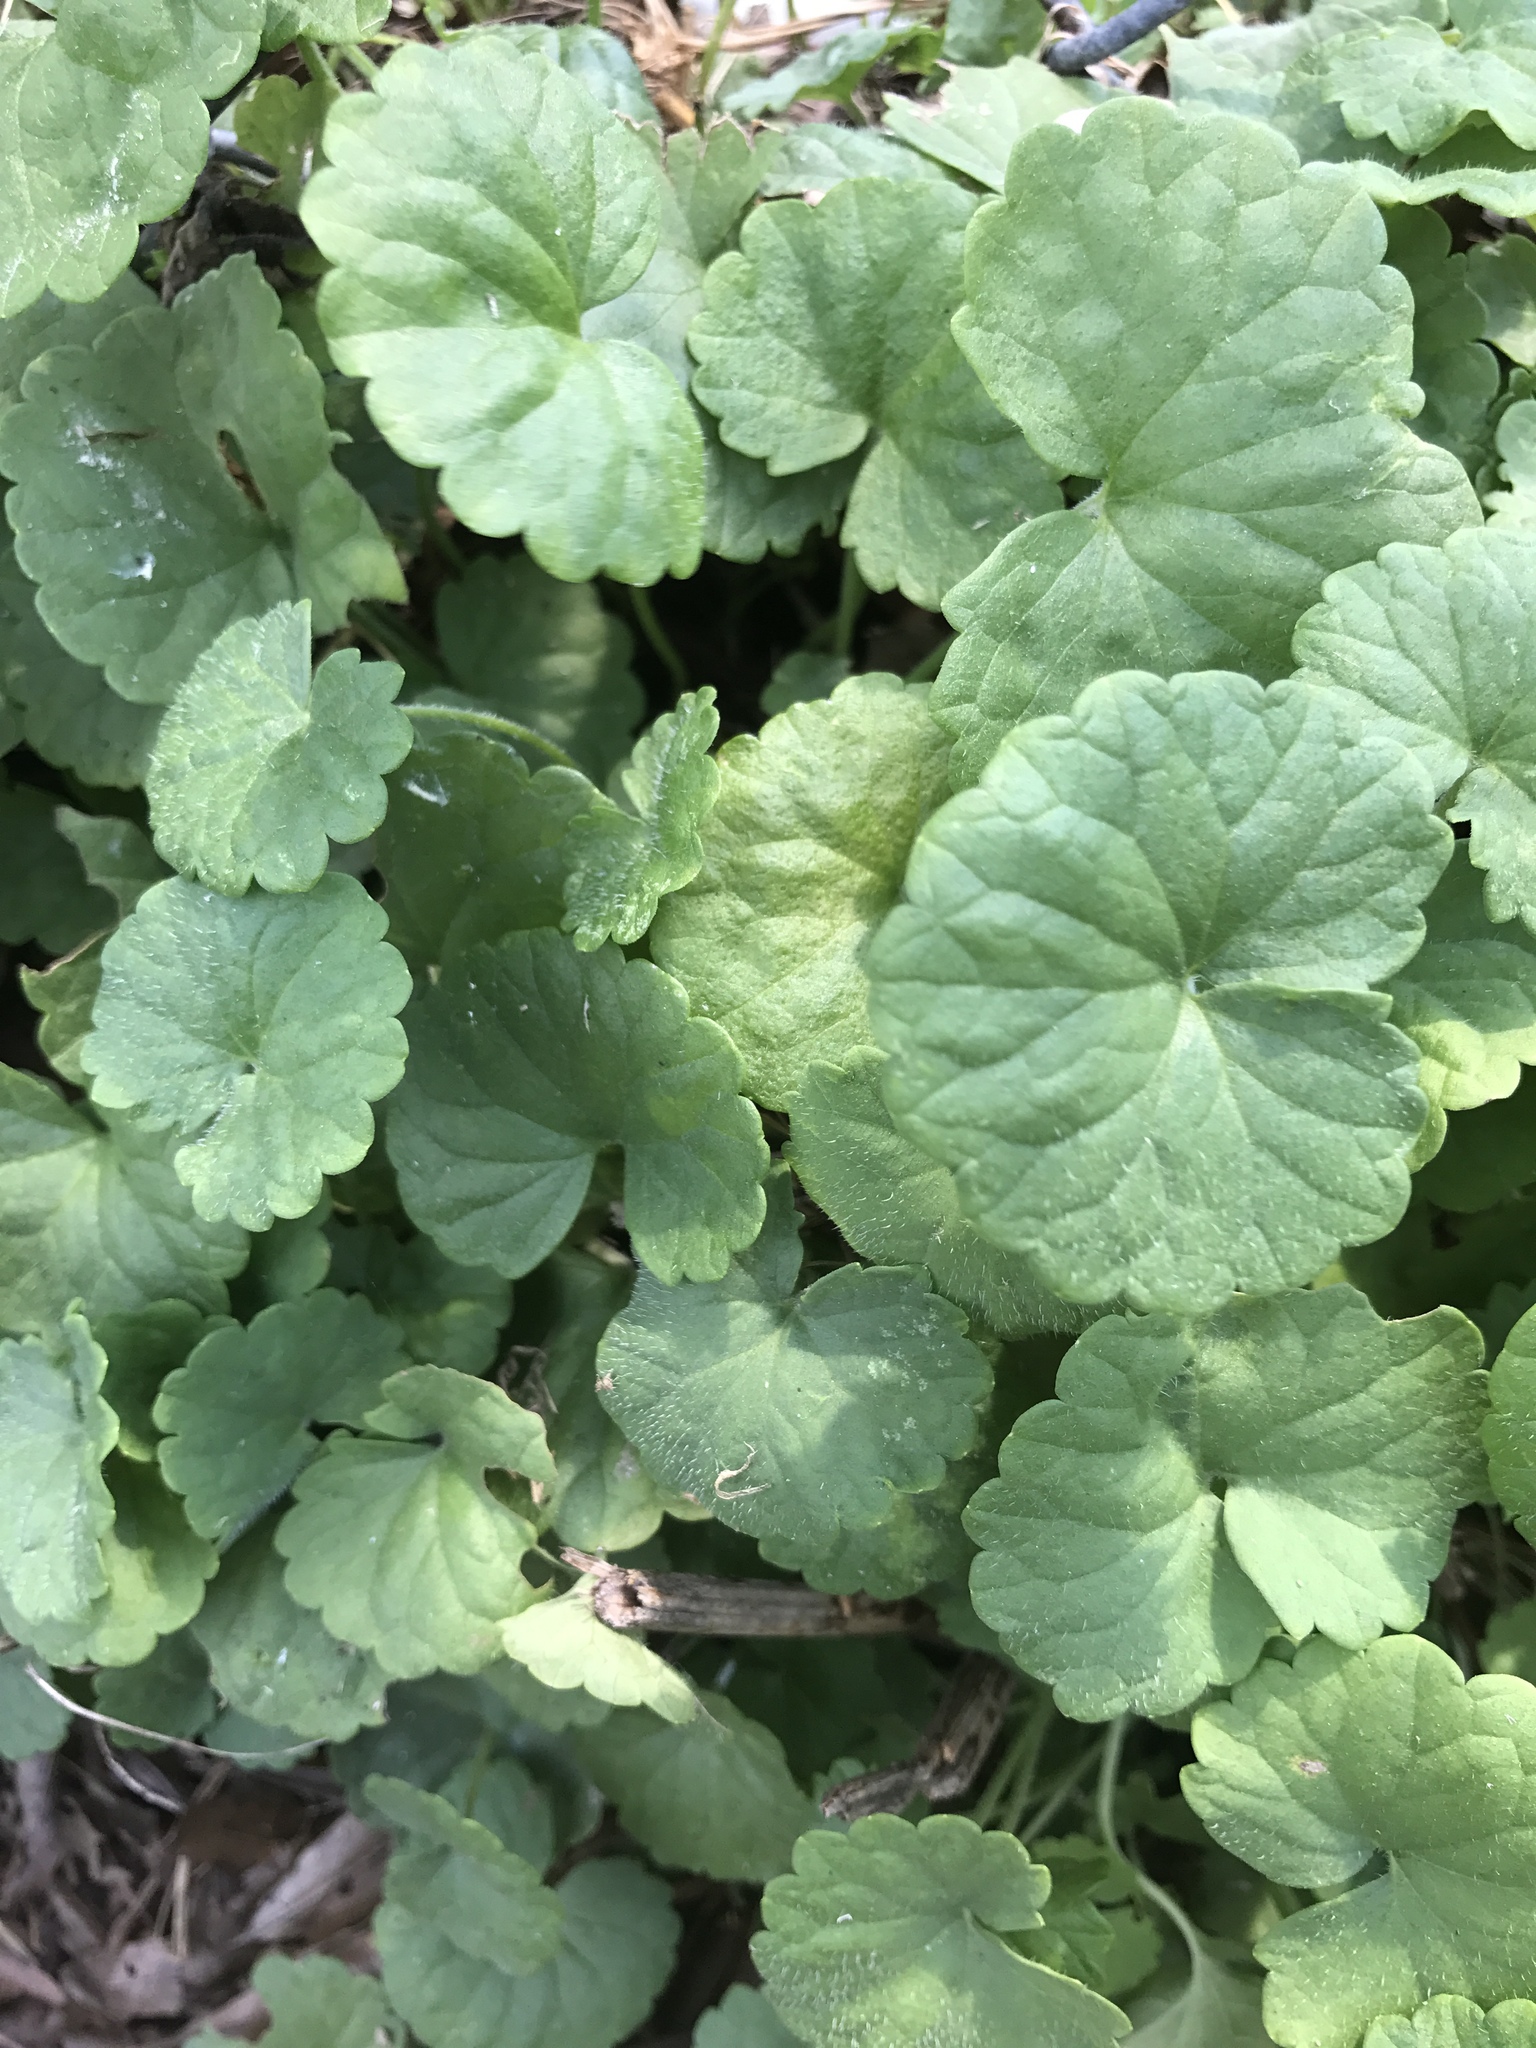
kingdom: Plantae
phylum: Tracheophyta
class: Magnoliopsida
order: Lamiales
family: Lamiaceae
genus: Glechoma
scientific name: Glechoma hederacea
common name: Ground ivy
